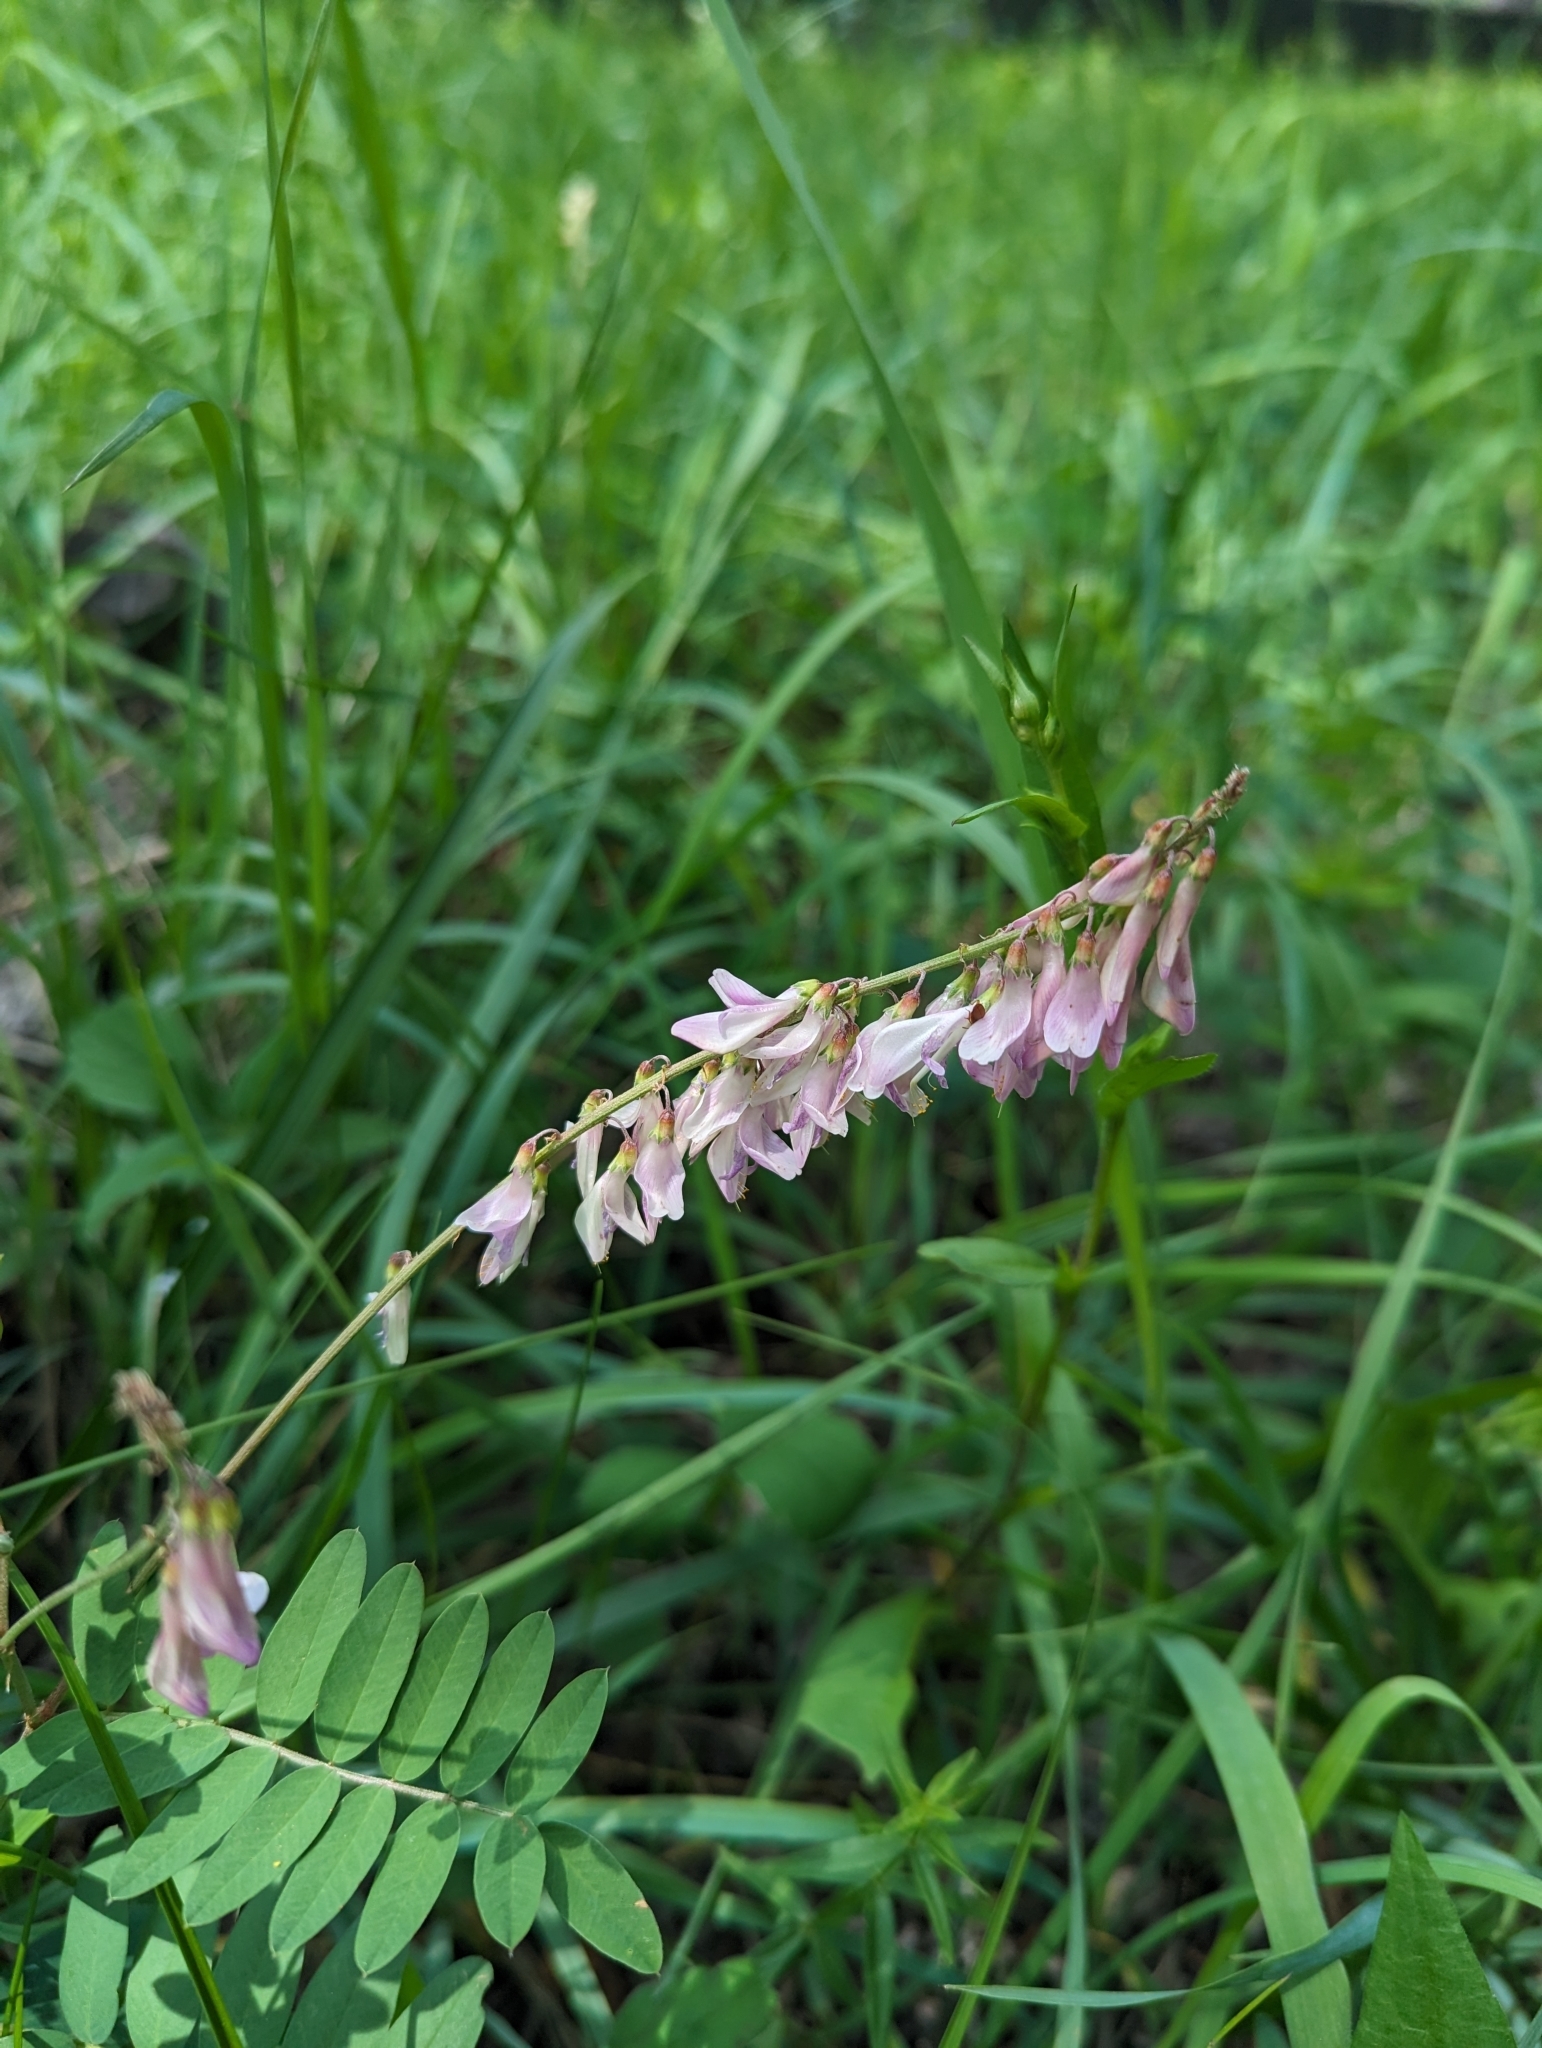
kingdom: Plantae
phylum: Tracheophyta
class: Magnoliopsida
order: Fabales
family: Fabaceae
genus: Hedysarum
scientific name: Hedysarum alpinum
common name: Alpine sweet-vetch
